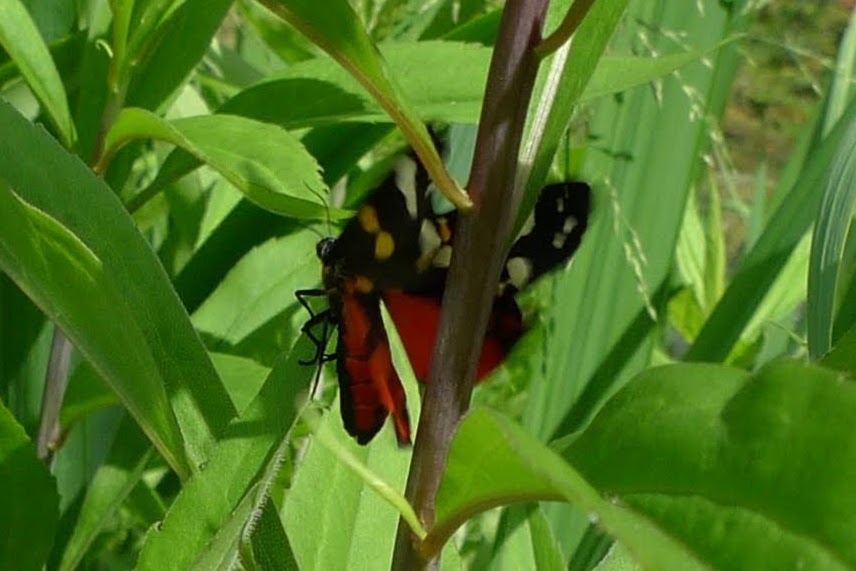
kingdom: Animalia
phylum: Arthropoda
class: Insecta
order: Lepidoptera
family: Erebidae
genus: Callimorpha
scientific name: Callimorpha dominula
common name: Scarlet tiger
